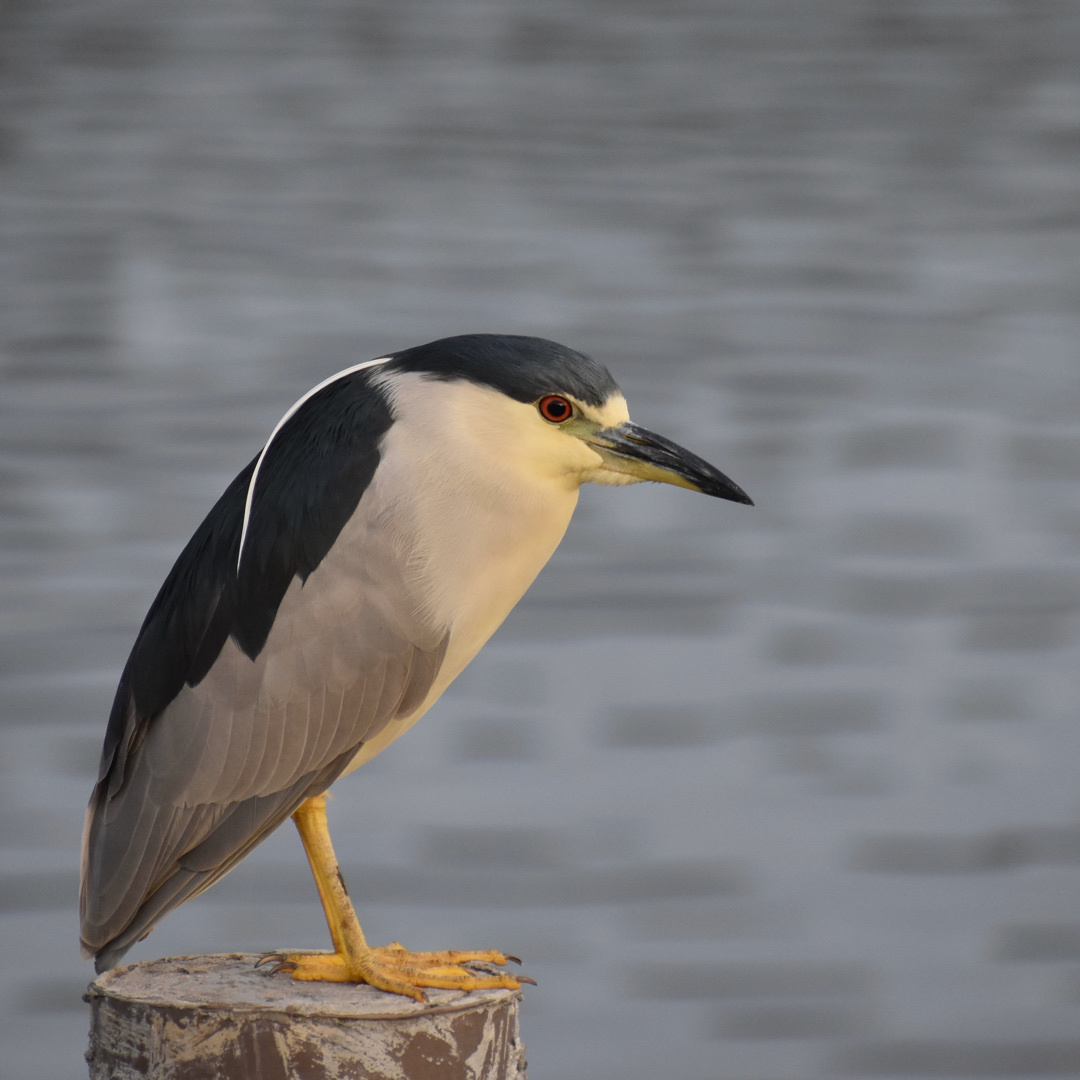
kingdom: Animalia
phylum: Chordata
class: Aves
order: Pelecaniformes
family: Ardeidae
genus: Nycticorax
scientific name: Nycticorax nycticorax
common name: Black-crowned night heron
